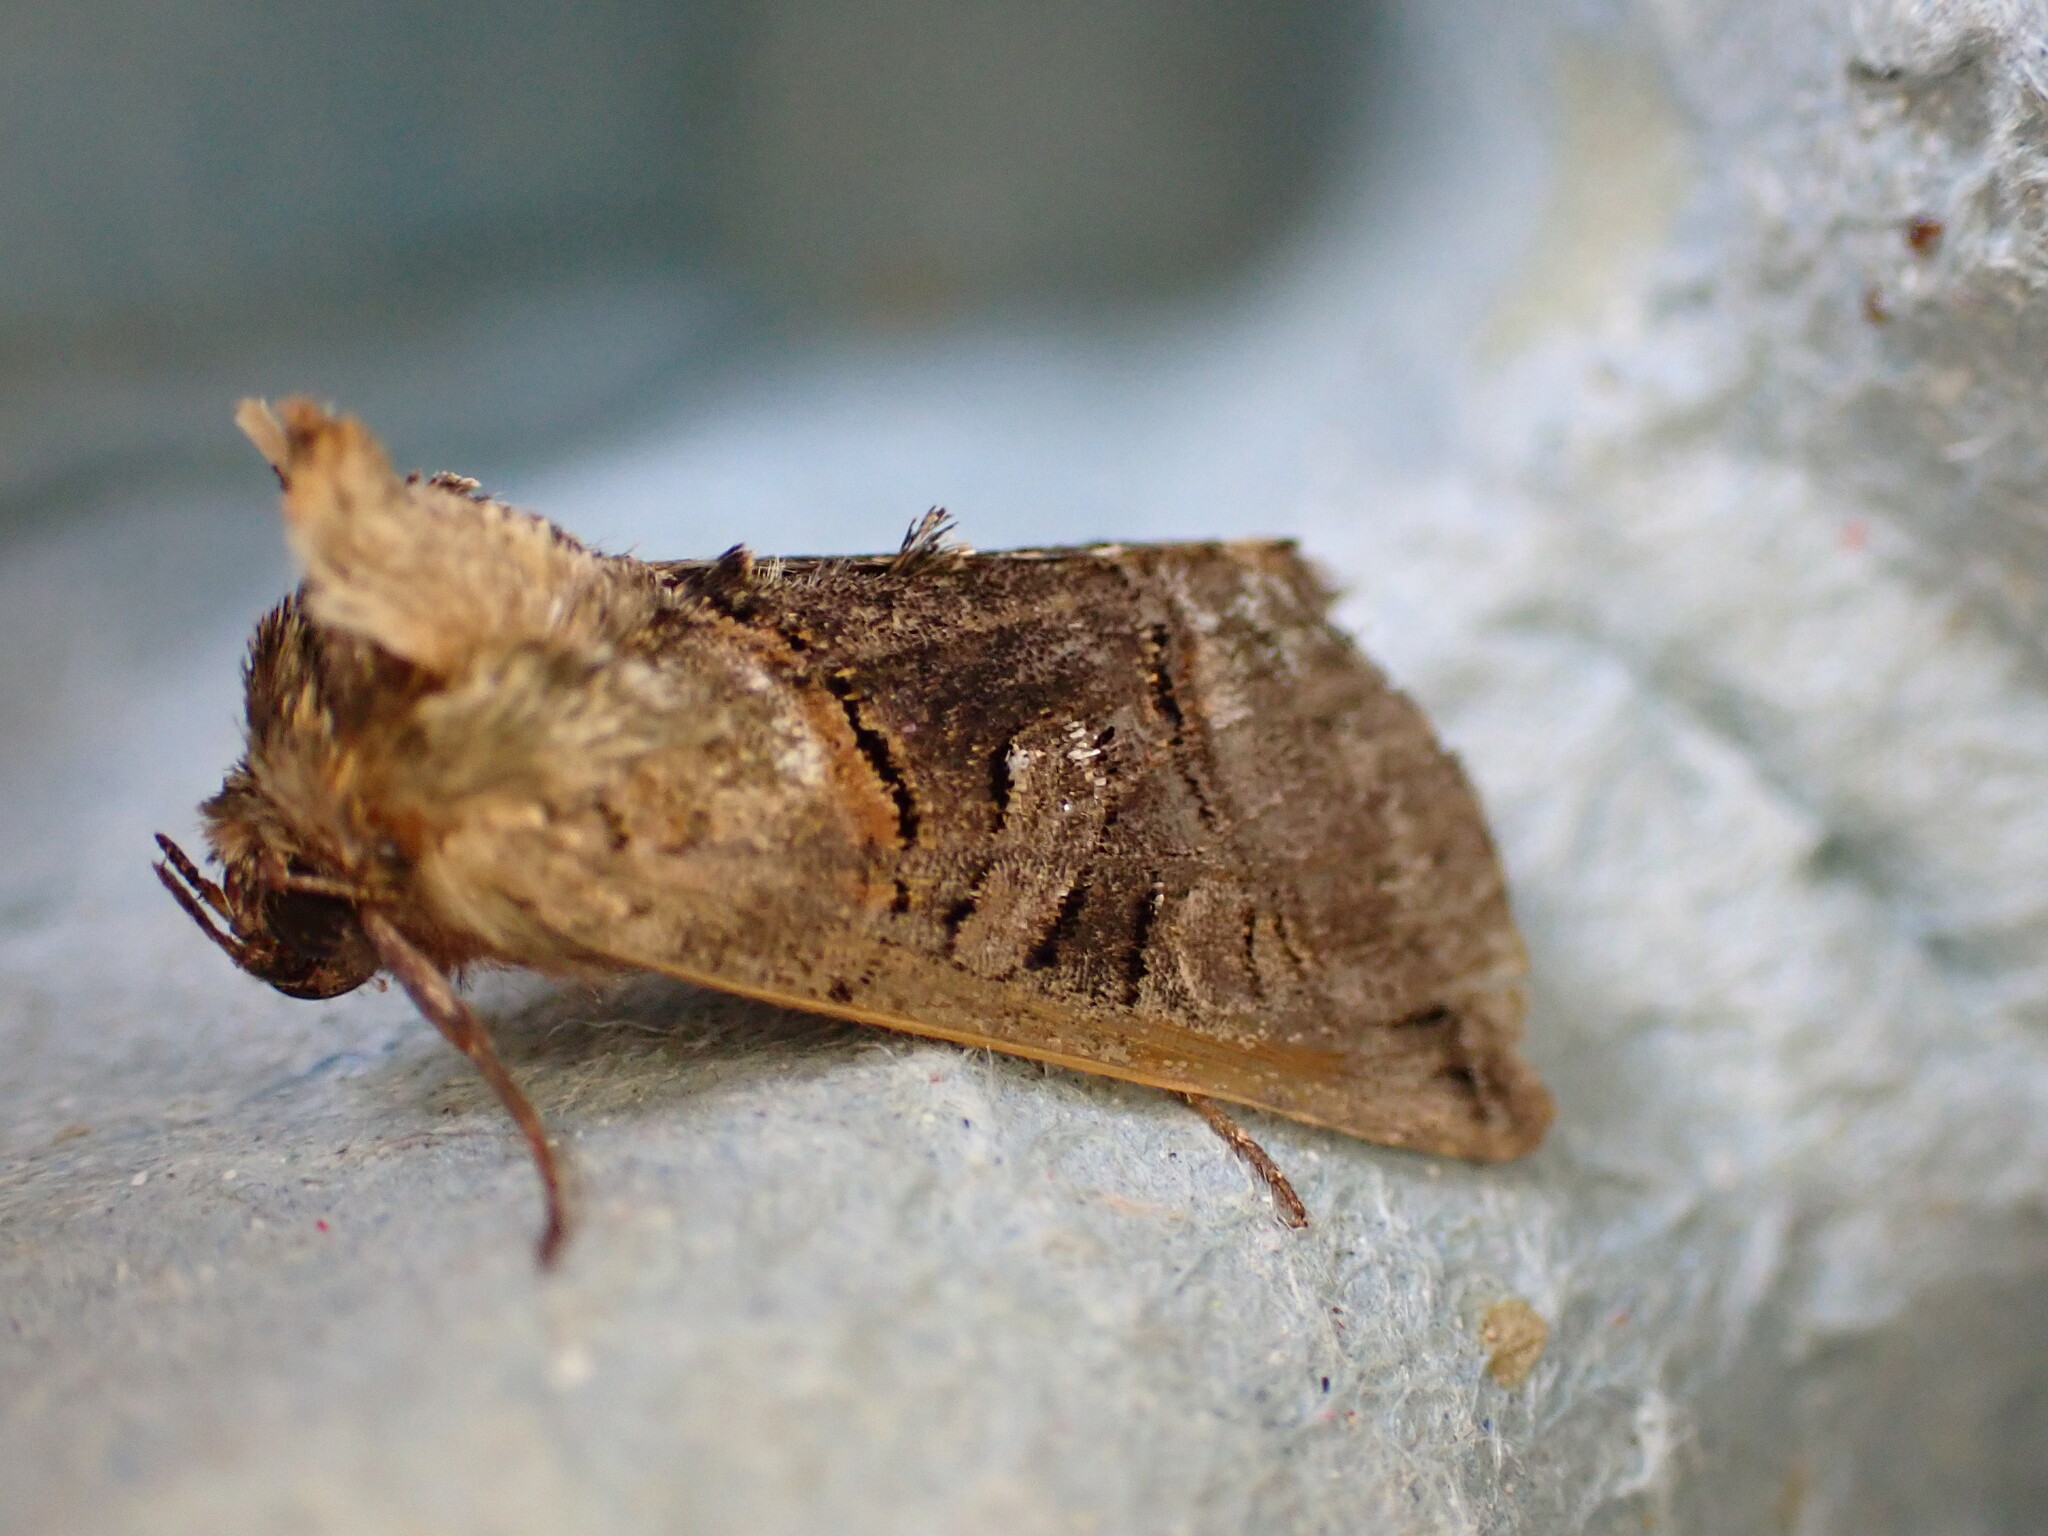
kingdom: Animalia
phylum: Arthropoda
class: Insecta
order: Lepidoptera
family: Noctuidae
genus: Abrostola
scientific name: Abrostola tripartita
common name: Spectacle
